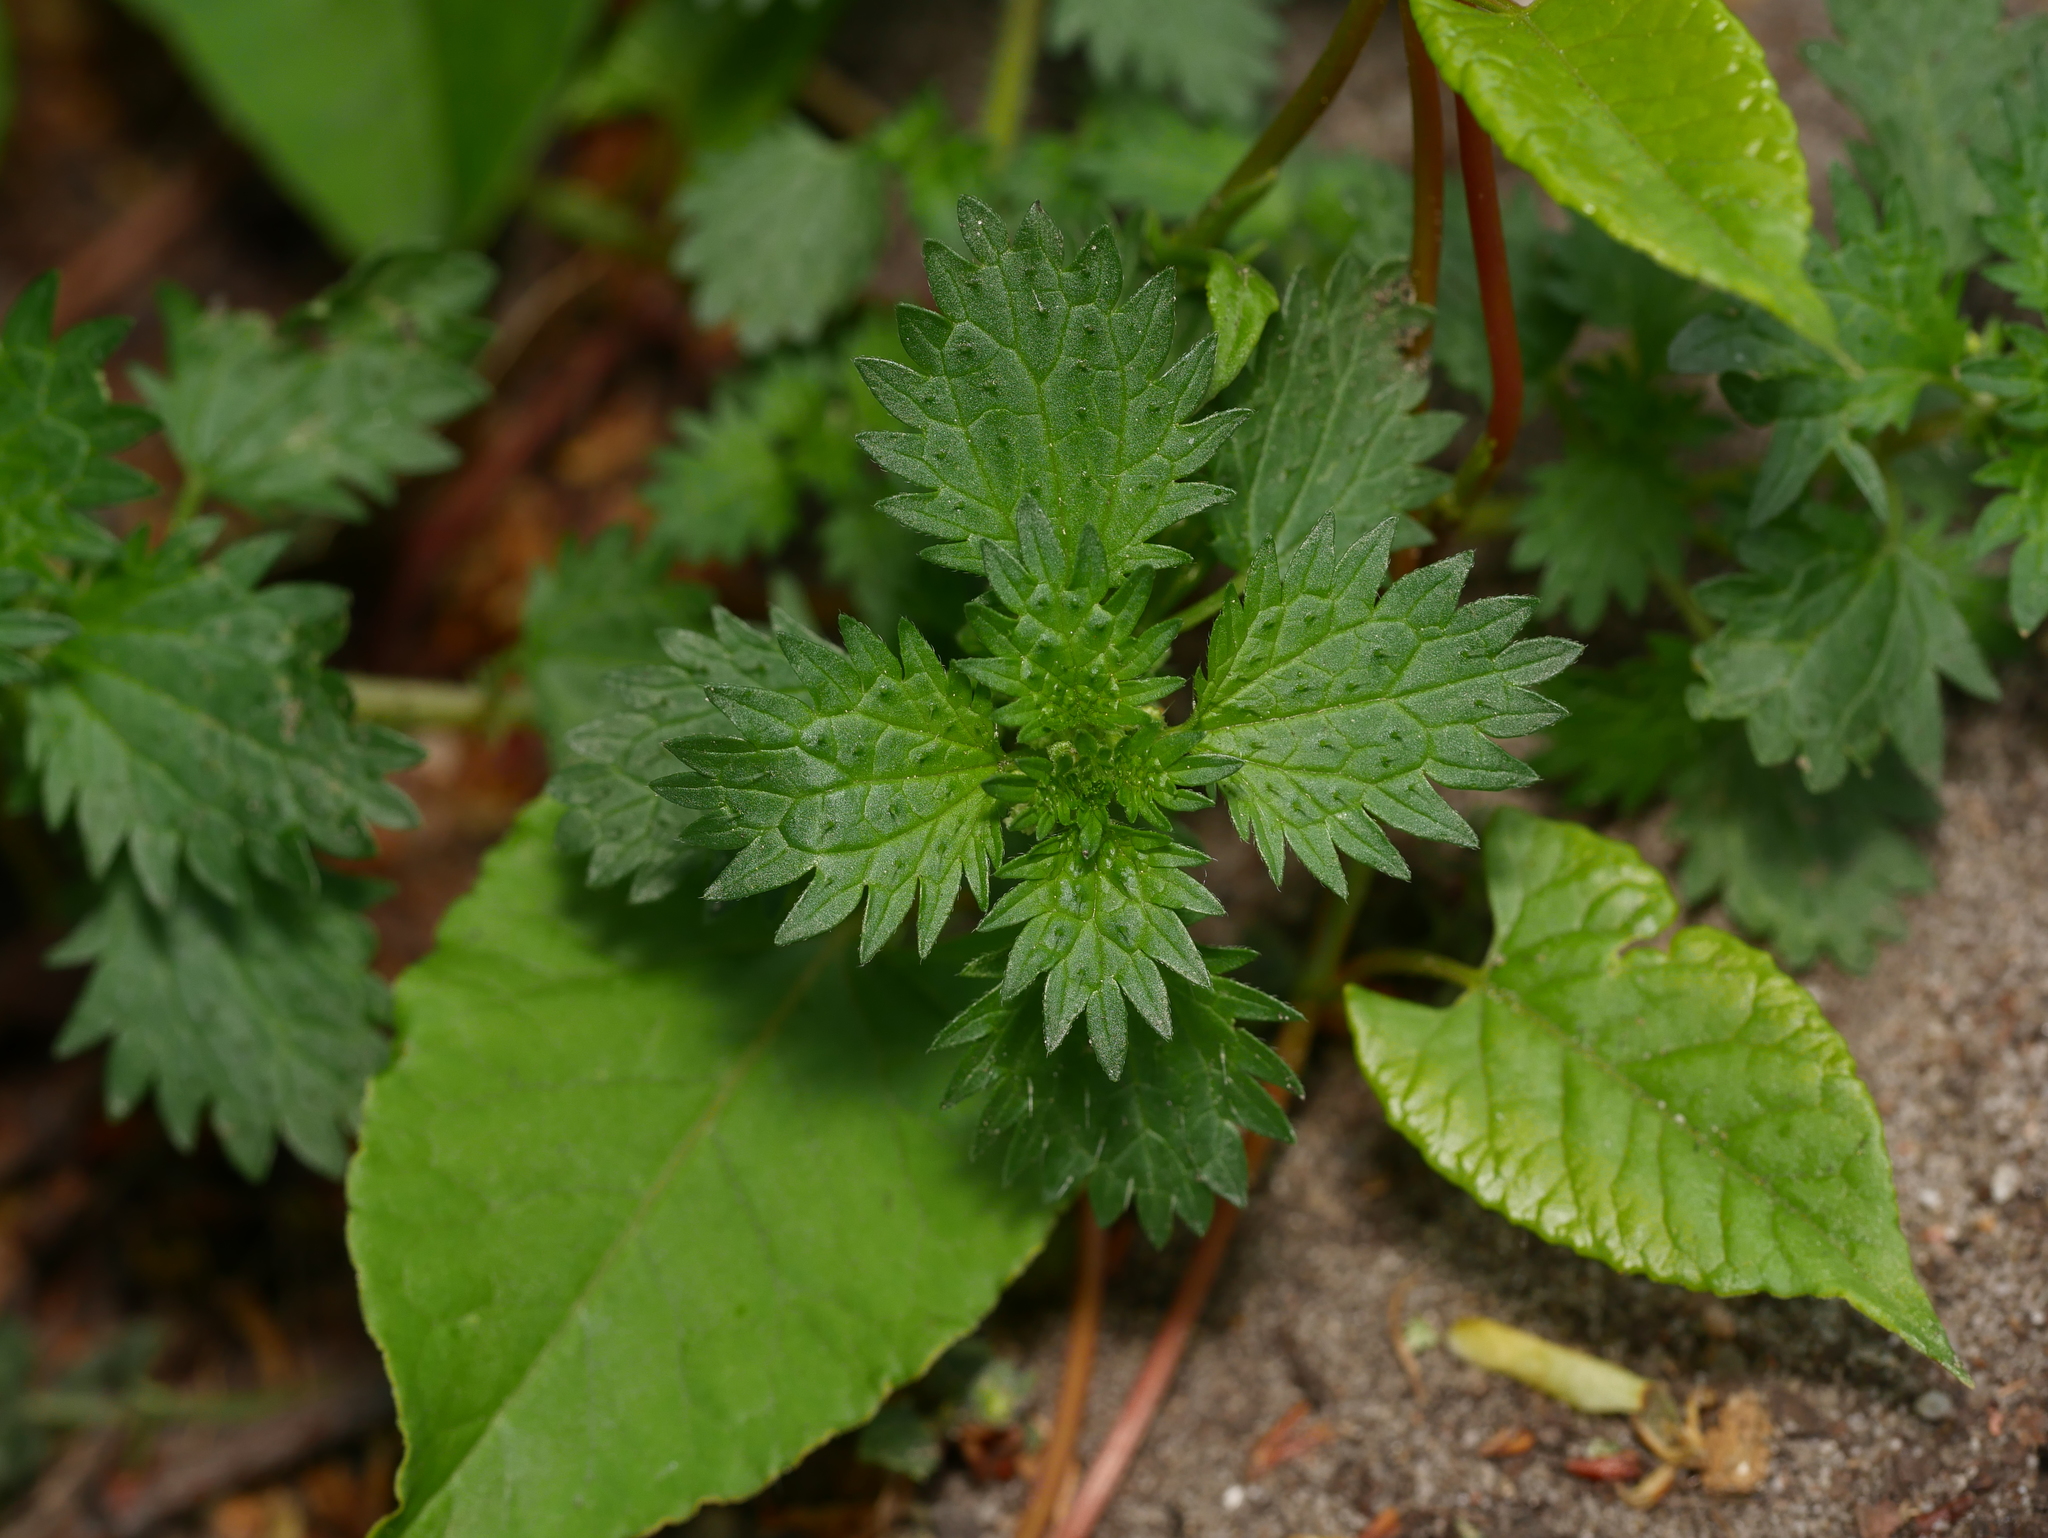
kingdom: Plantae
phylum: Tracheophyta
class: Magnoliopsida
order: Rosales
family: Urticaceae
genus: Urtica
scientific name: Urtica urens
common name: Dwarf nettle
